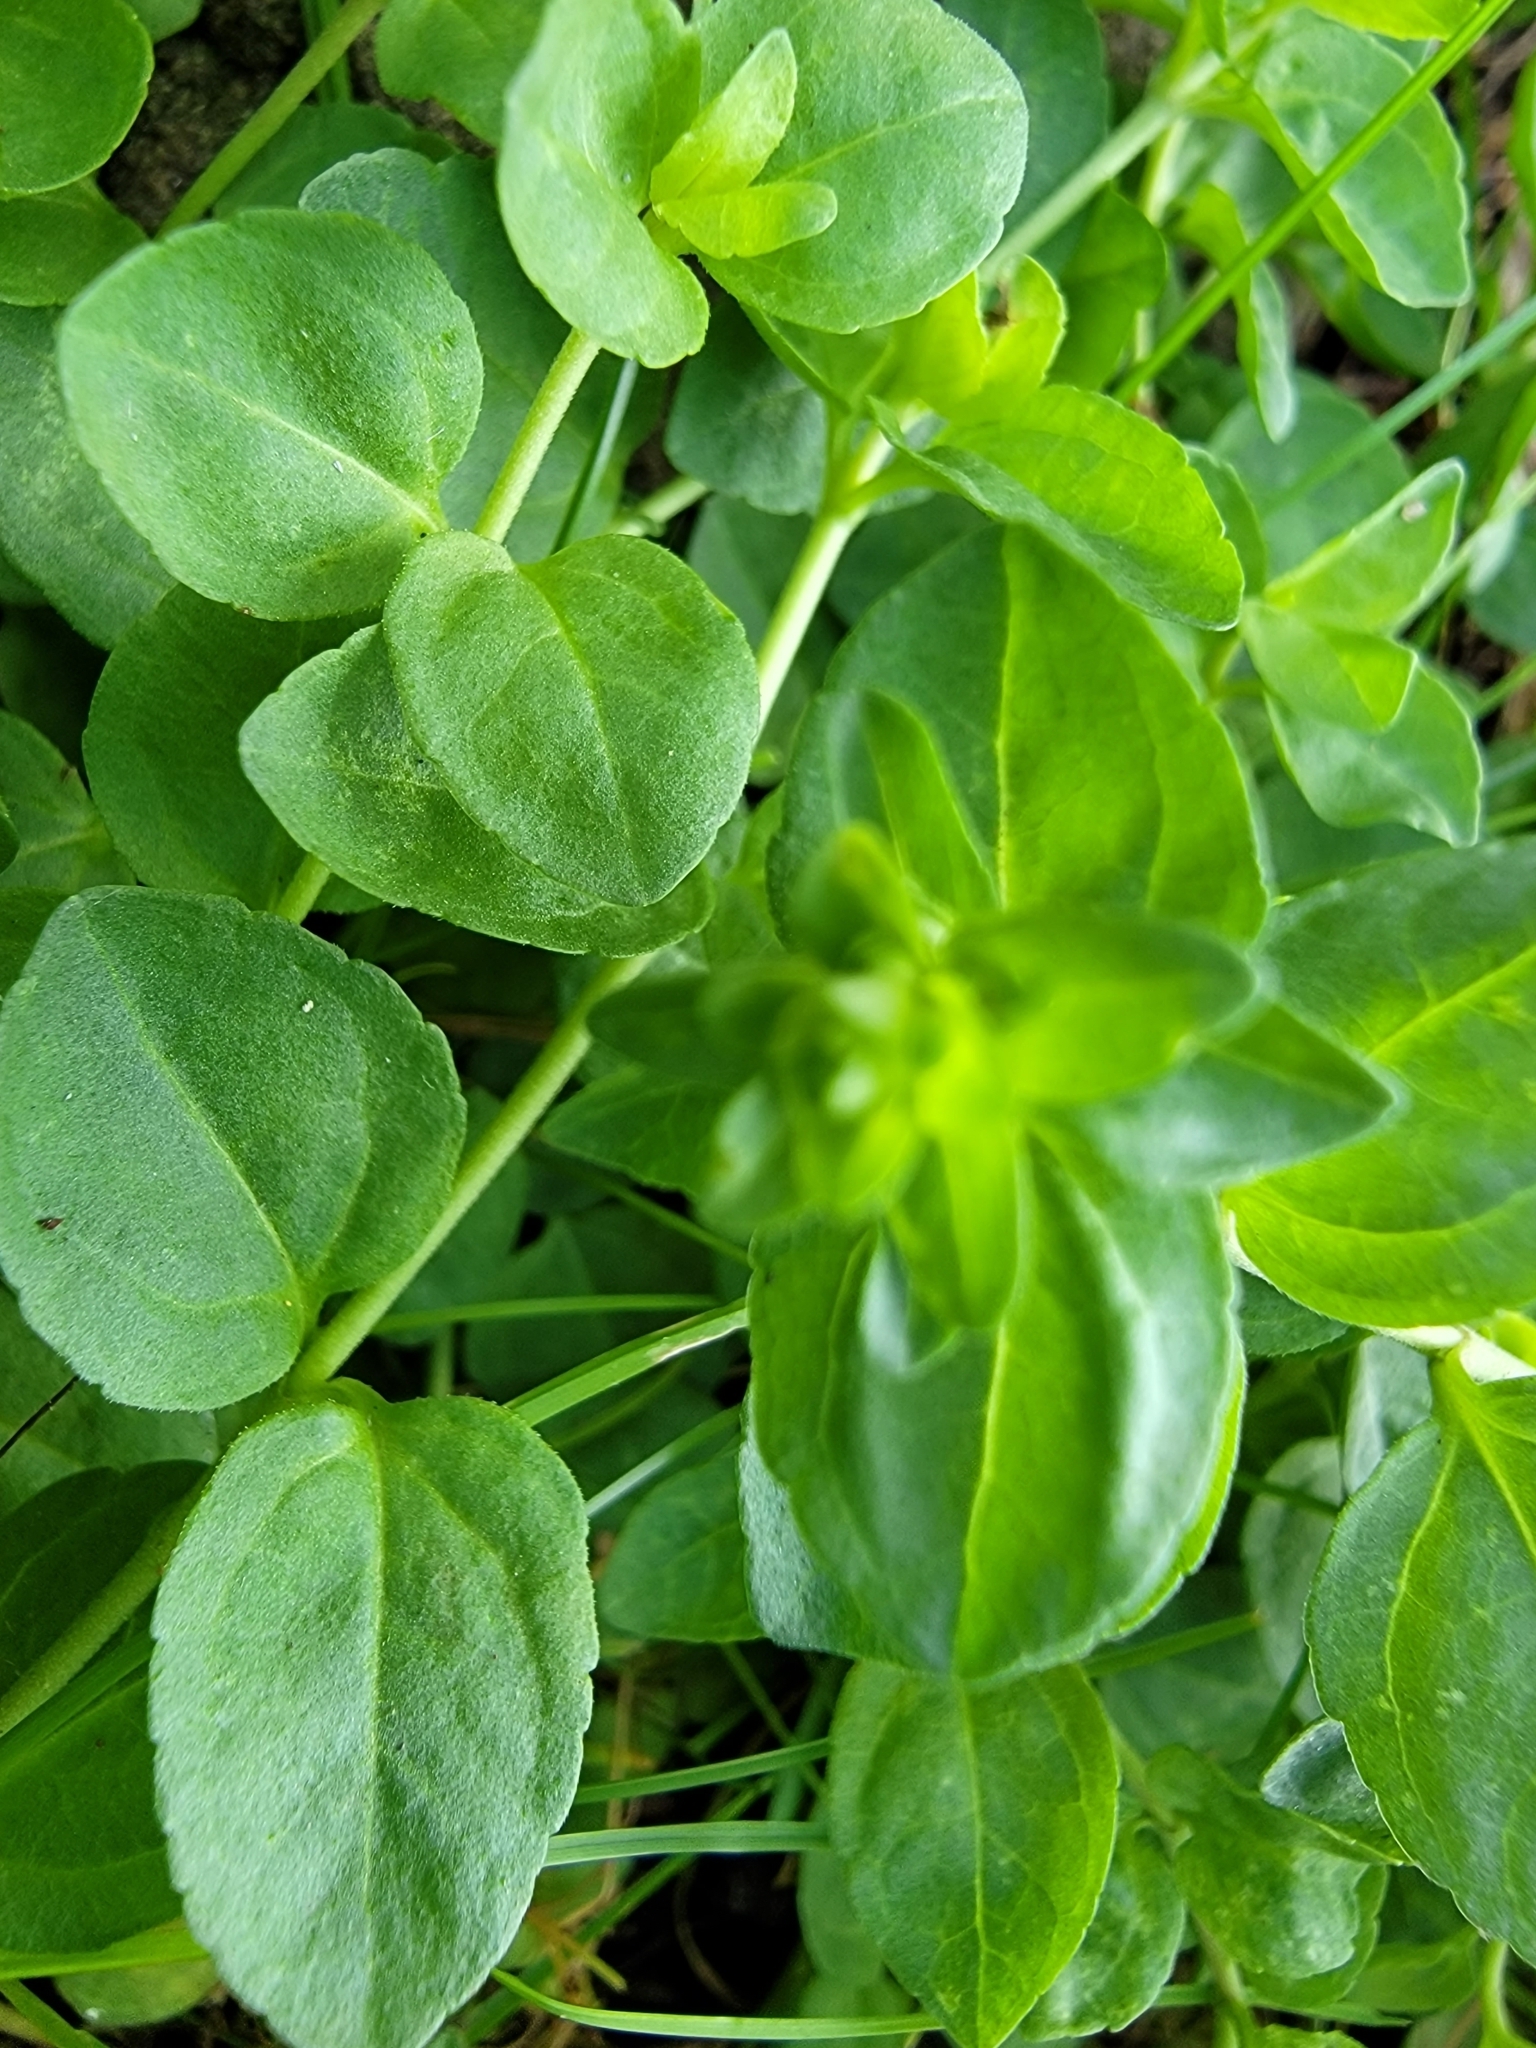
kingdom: Plantae
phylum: Tracheophyta
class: Magnoliopsida
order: Lamiales
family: Plantaginaceae
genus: Veronica
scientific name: Veronica serpyllifolia
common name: Thyme-leaved speedwell
